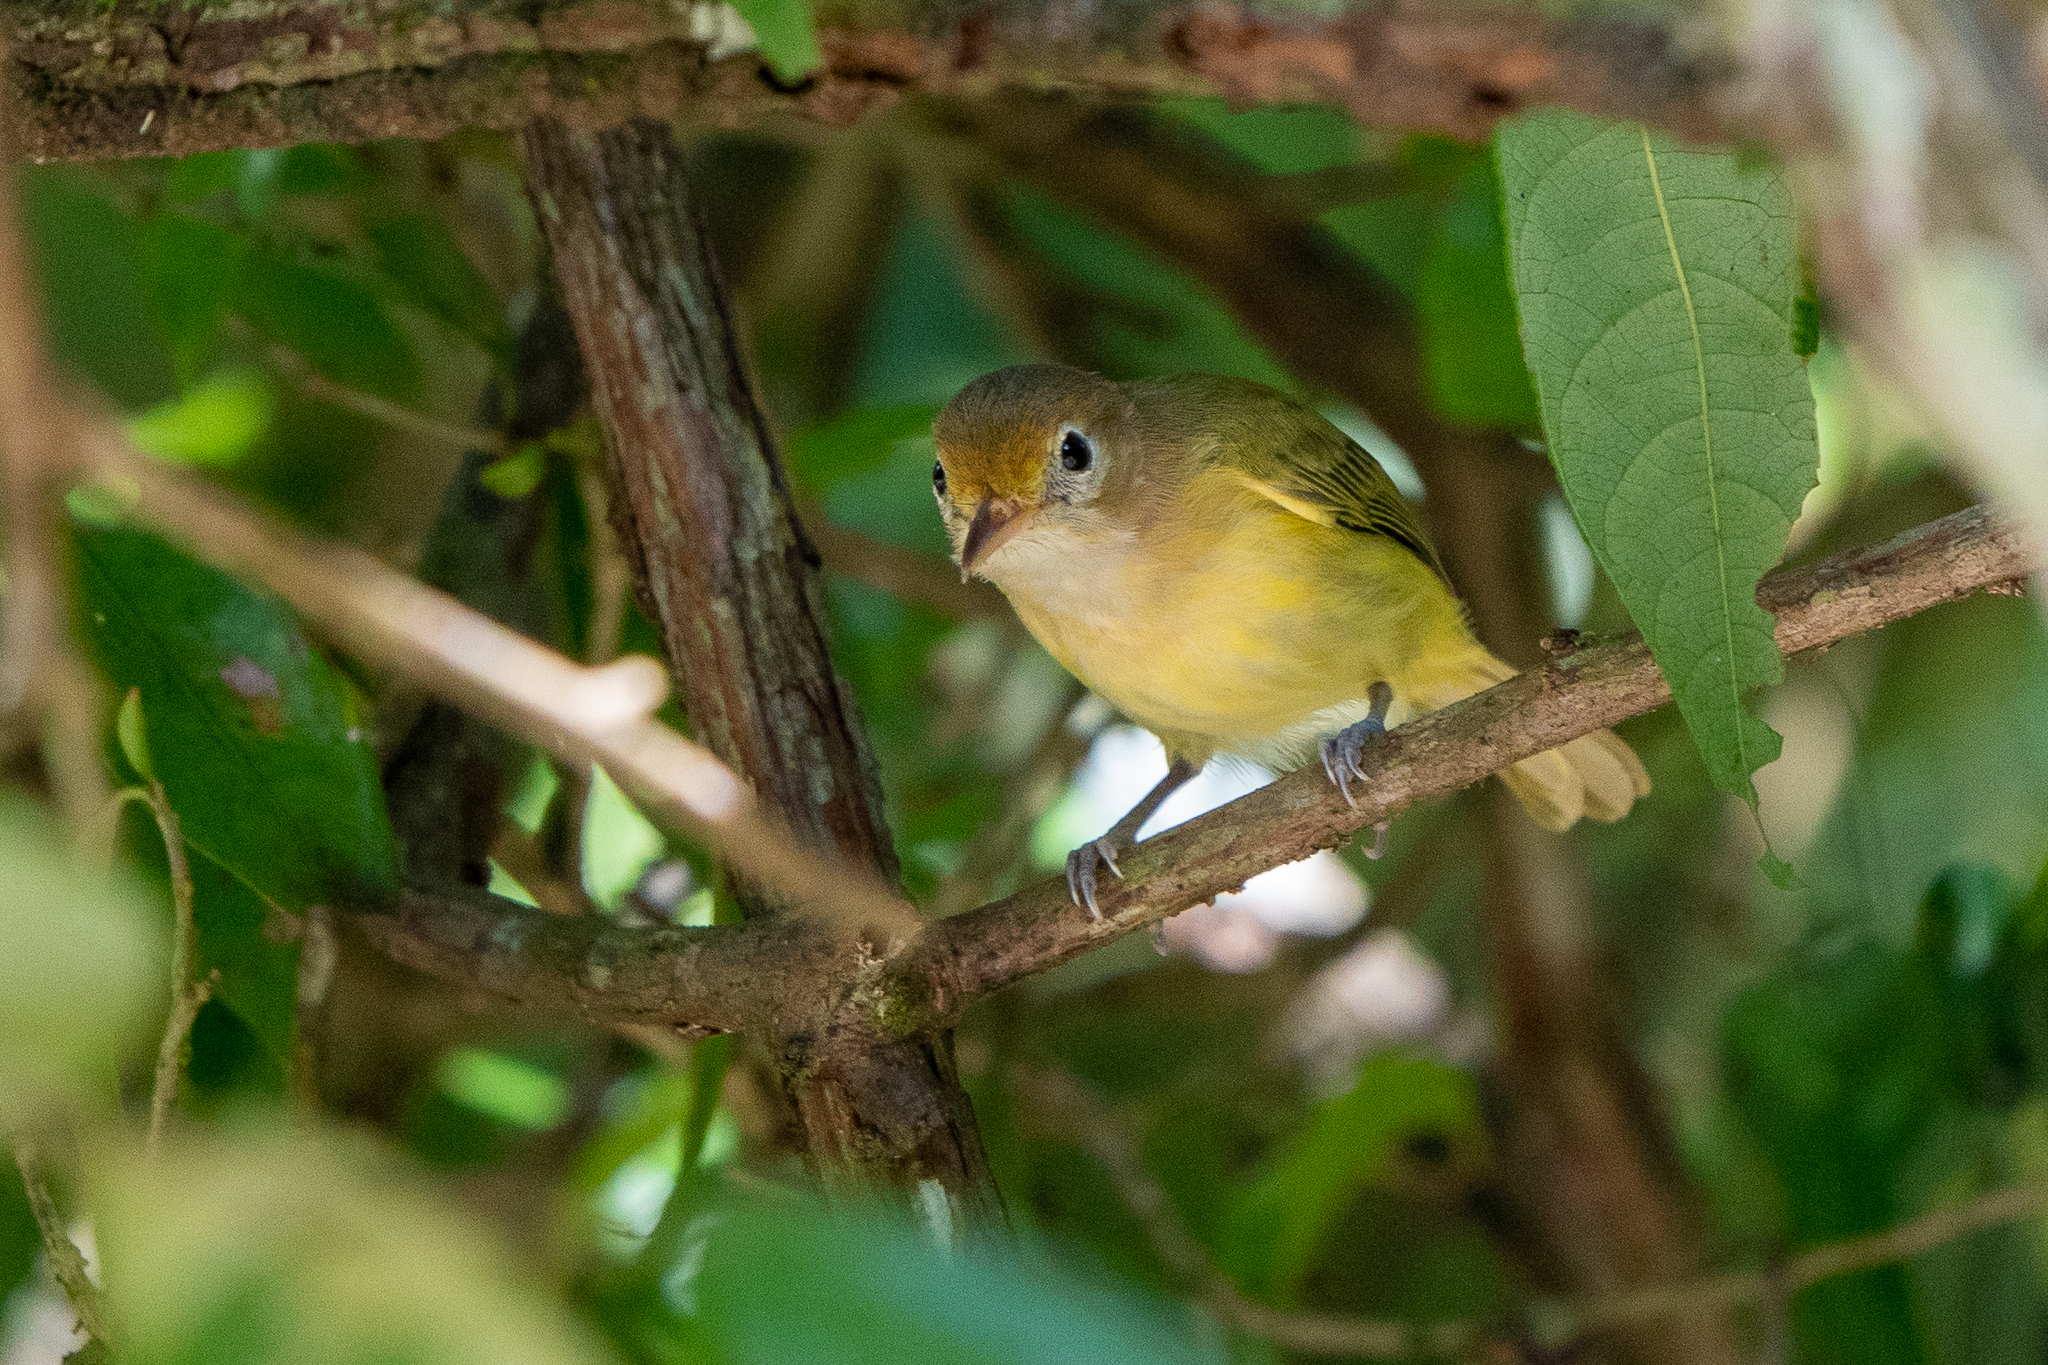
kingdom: Animalia
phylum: Chordata
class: Aves
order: Passeriformes
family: Vireonidae
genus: Hylophilus
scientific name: Hylophilus aurantiifrons
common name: Golden-fronted greenlet
